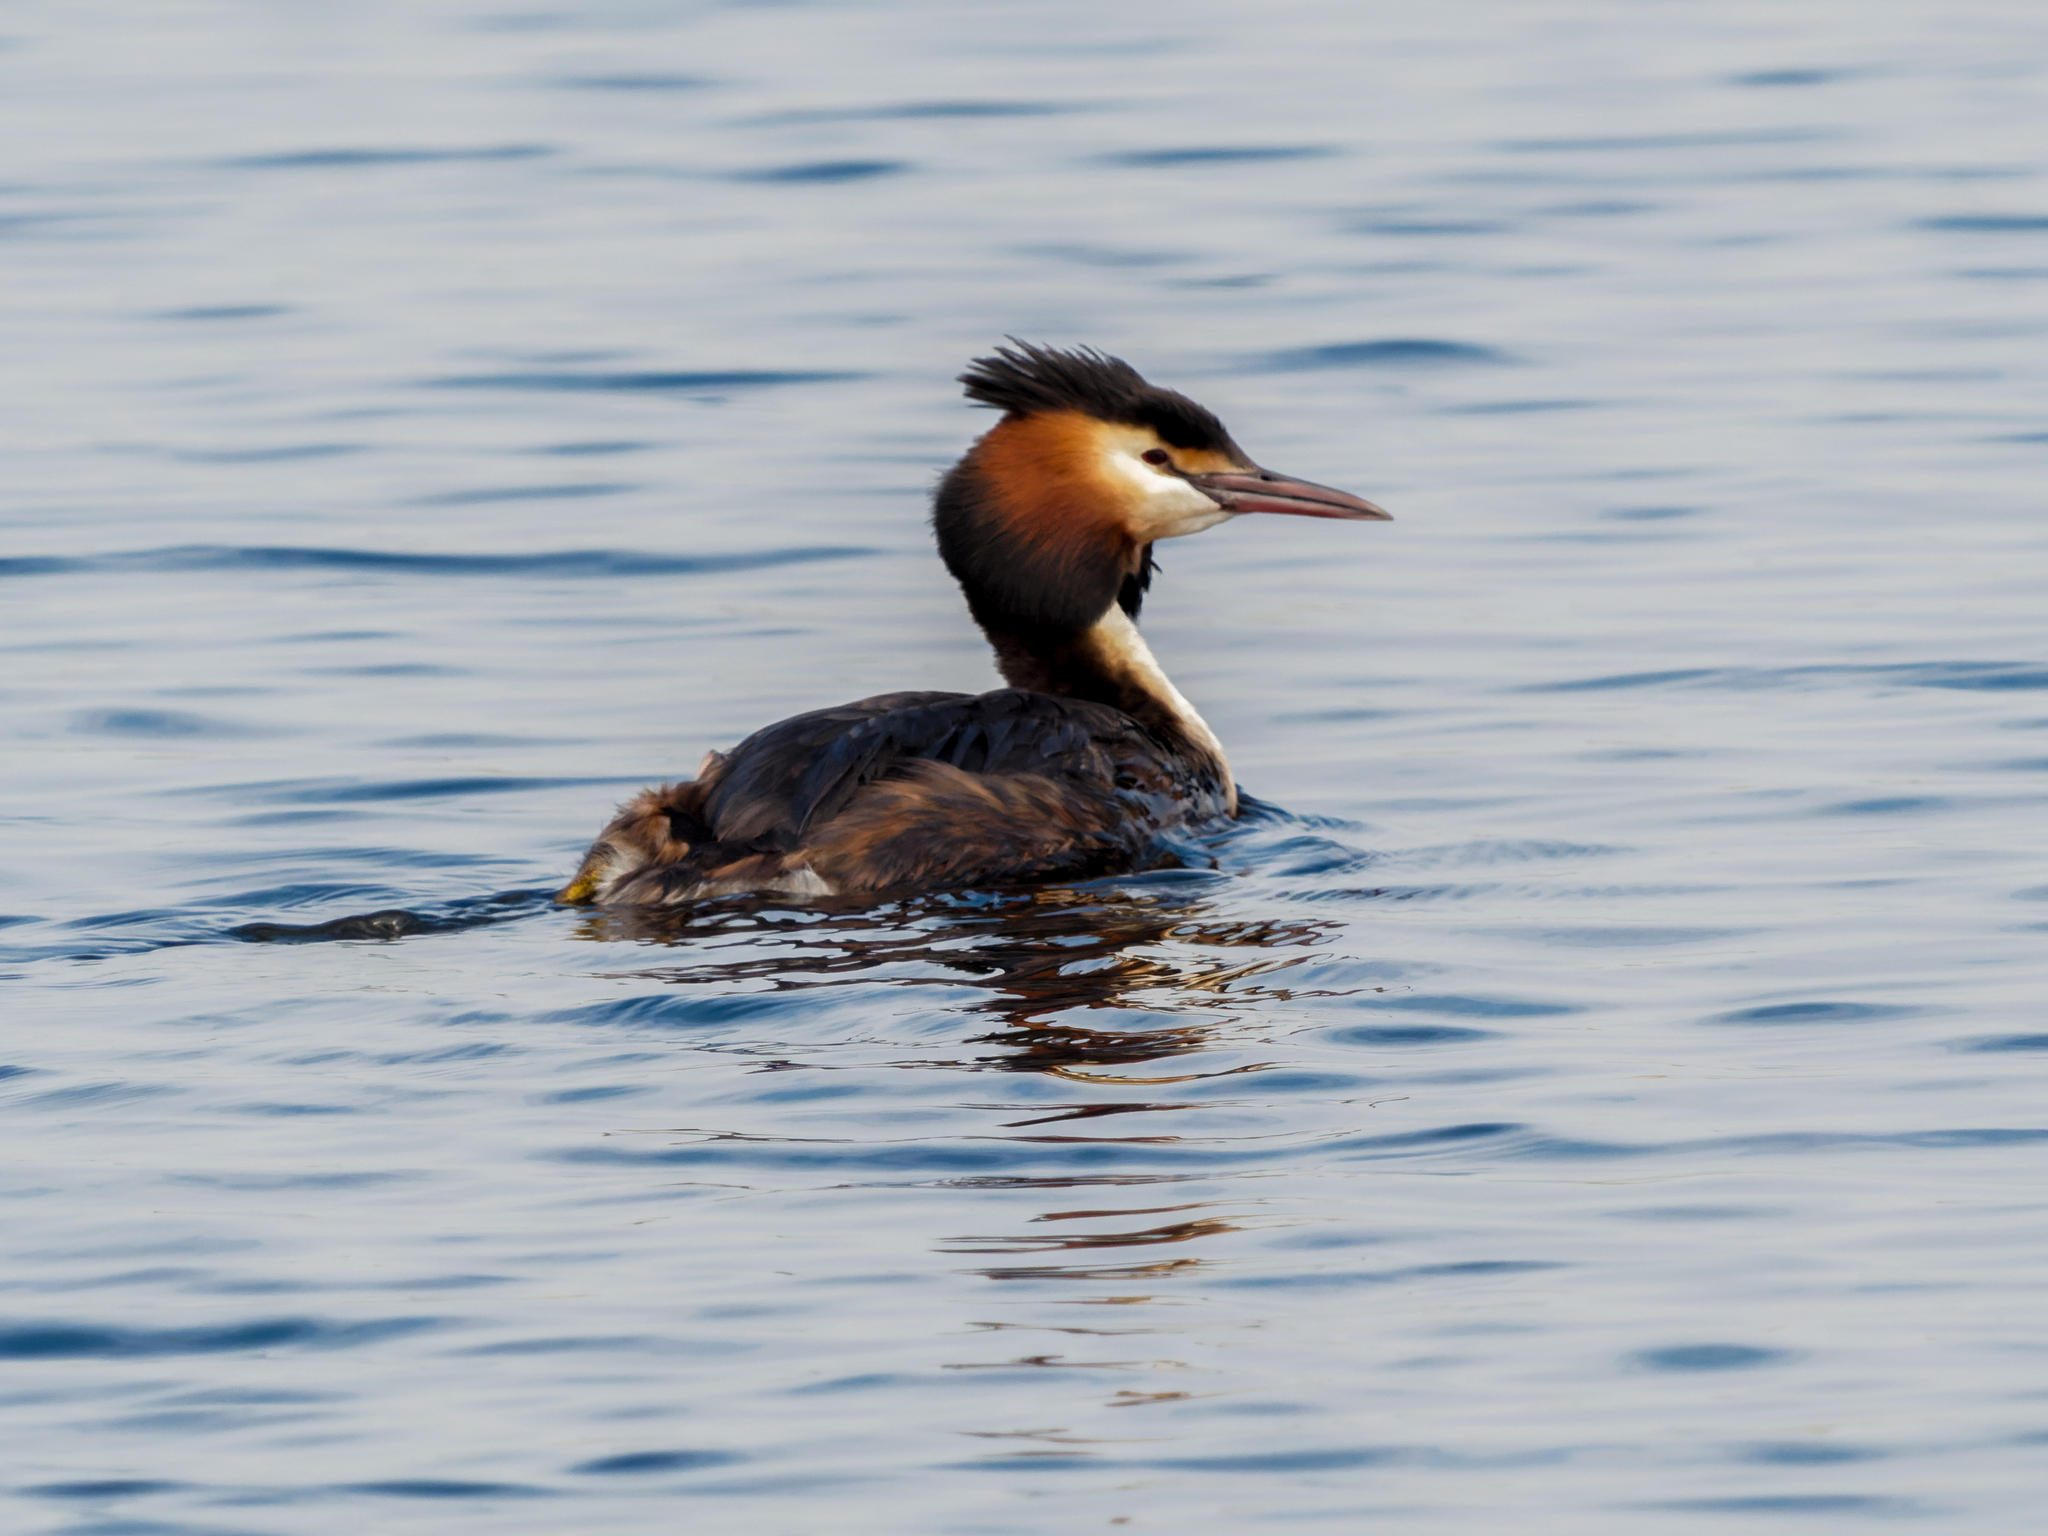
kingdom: Animalia
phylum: Chordata
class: Aves
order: Podicipediformes
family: Podicipedidae
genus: Podiceps
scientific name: Podiceps cristatus
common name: Great crested grebe
